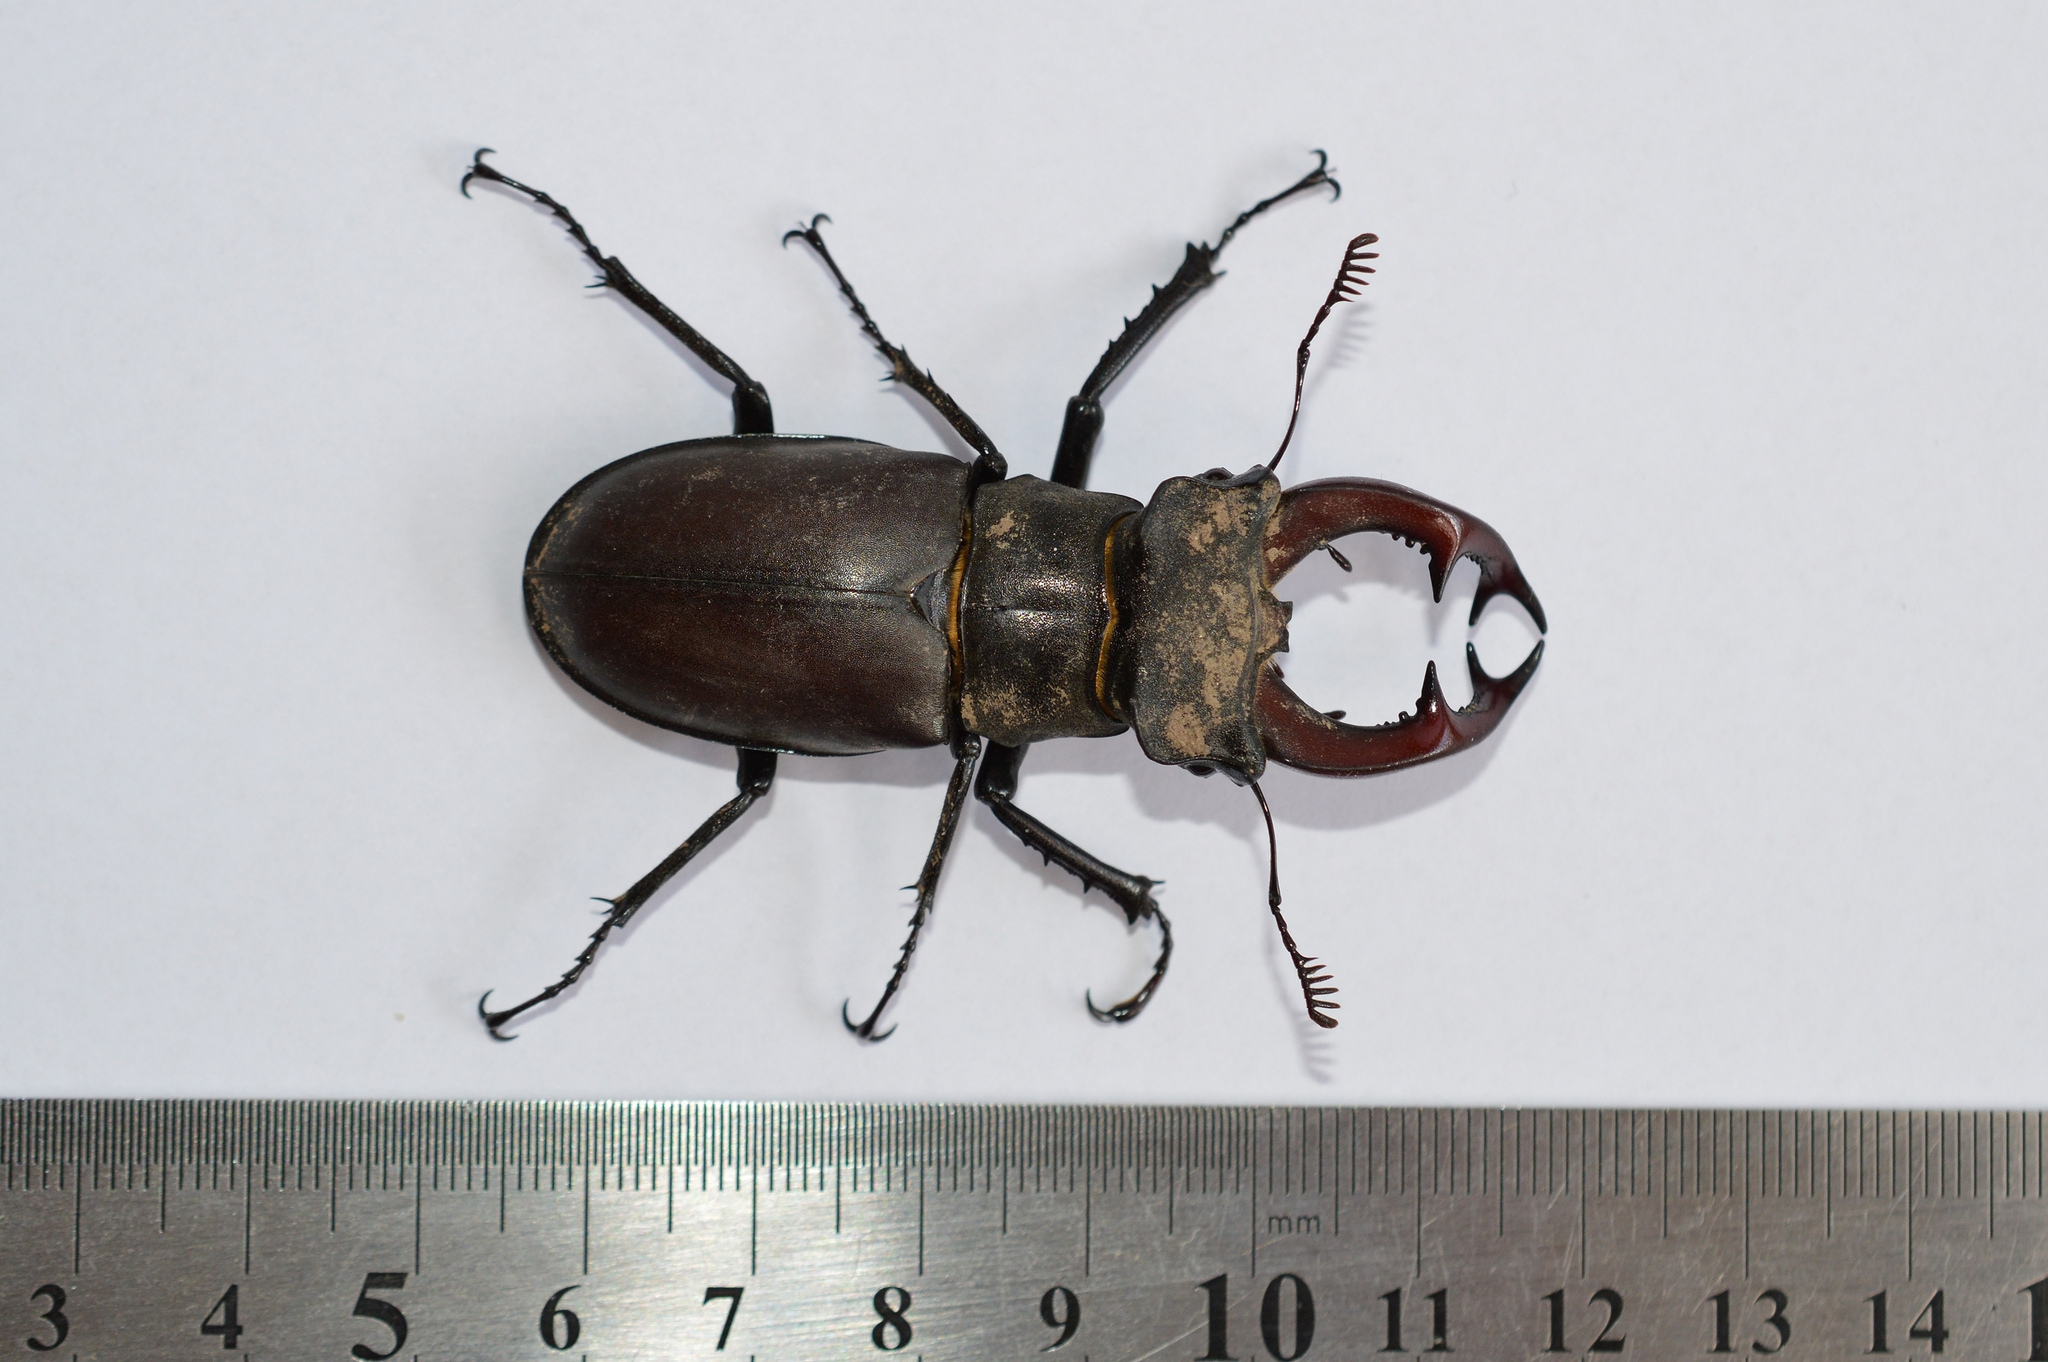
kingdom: Animalia
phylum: Arthropoda
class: Insecta
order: Coleoptera
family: Lucanidae
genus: Lucanus
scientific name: Lucanus cervus
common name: Stag beetle
